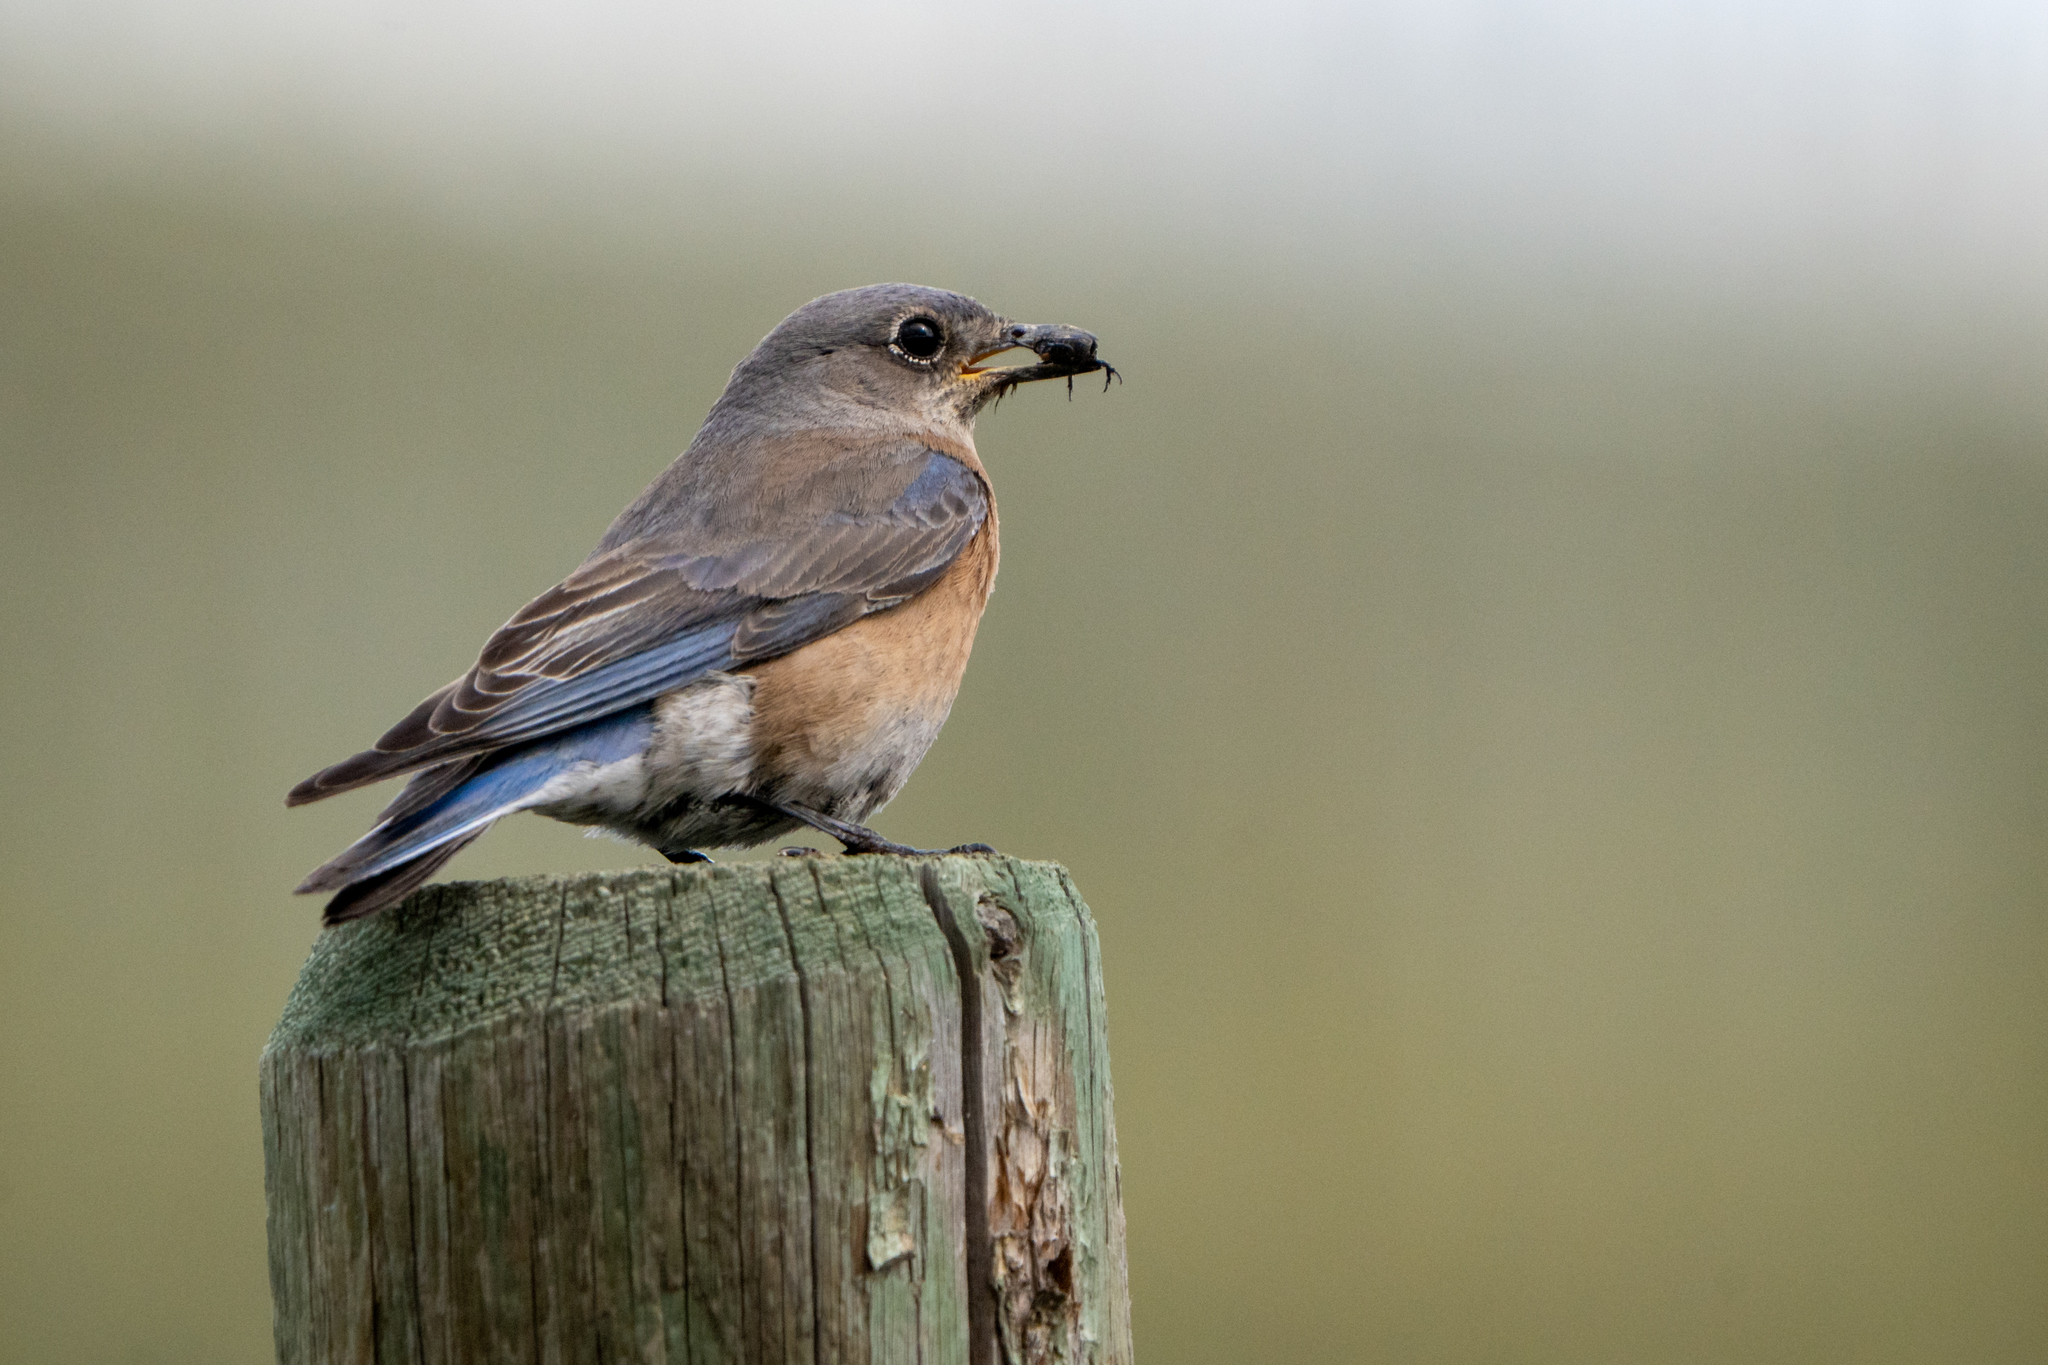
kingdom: Animalia
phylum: Chordata
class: Aves
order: Passeriformes
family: Turdidae
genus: Sialia
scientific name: Sialia mexicana
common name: Western bluebird
